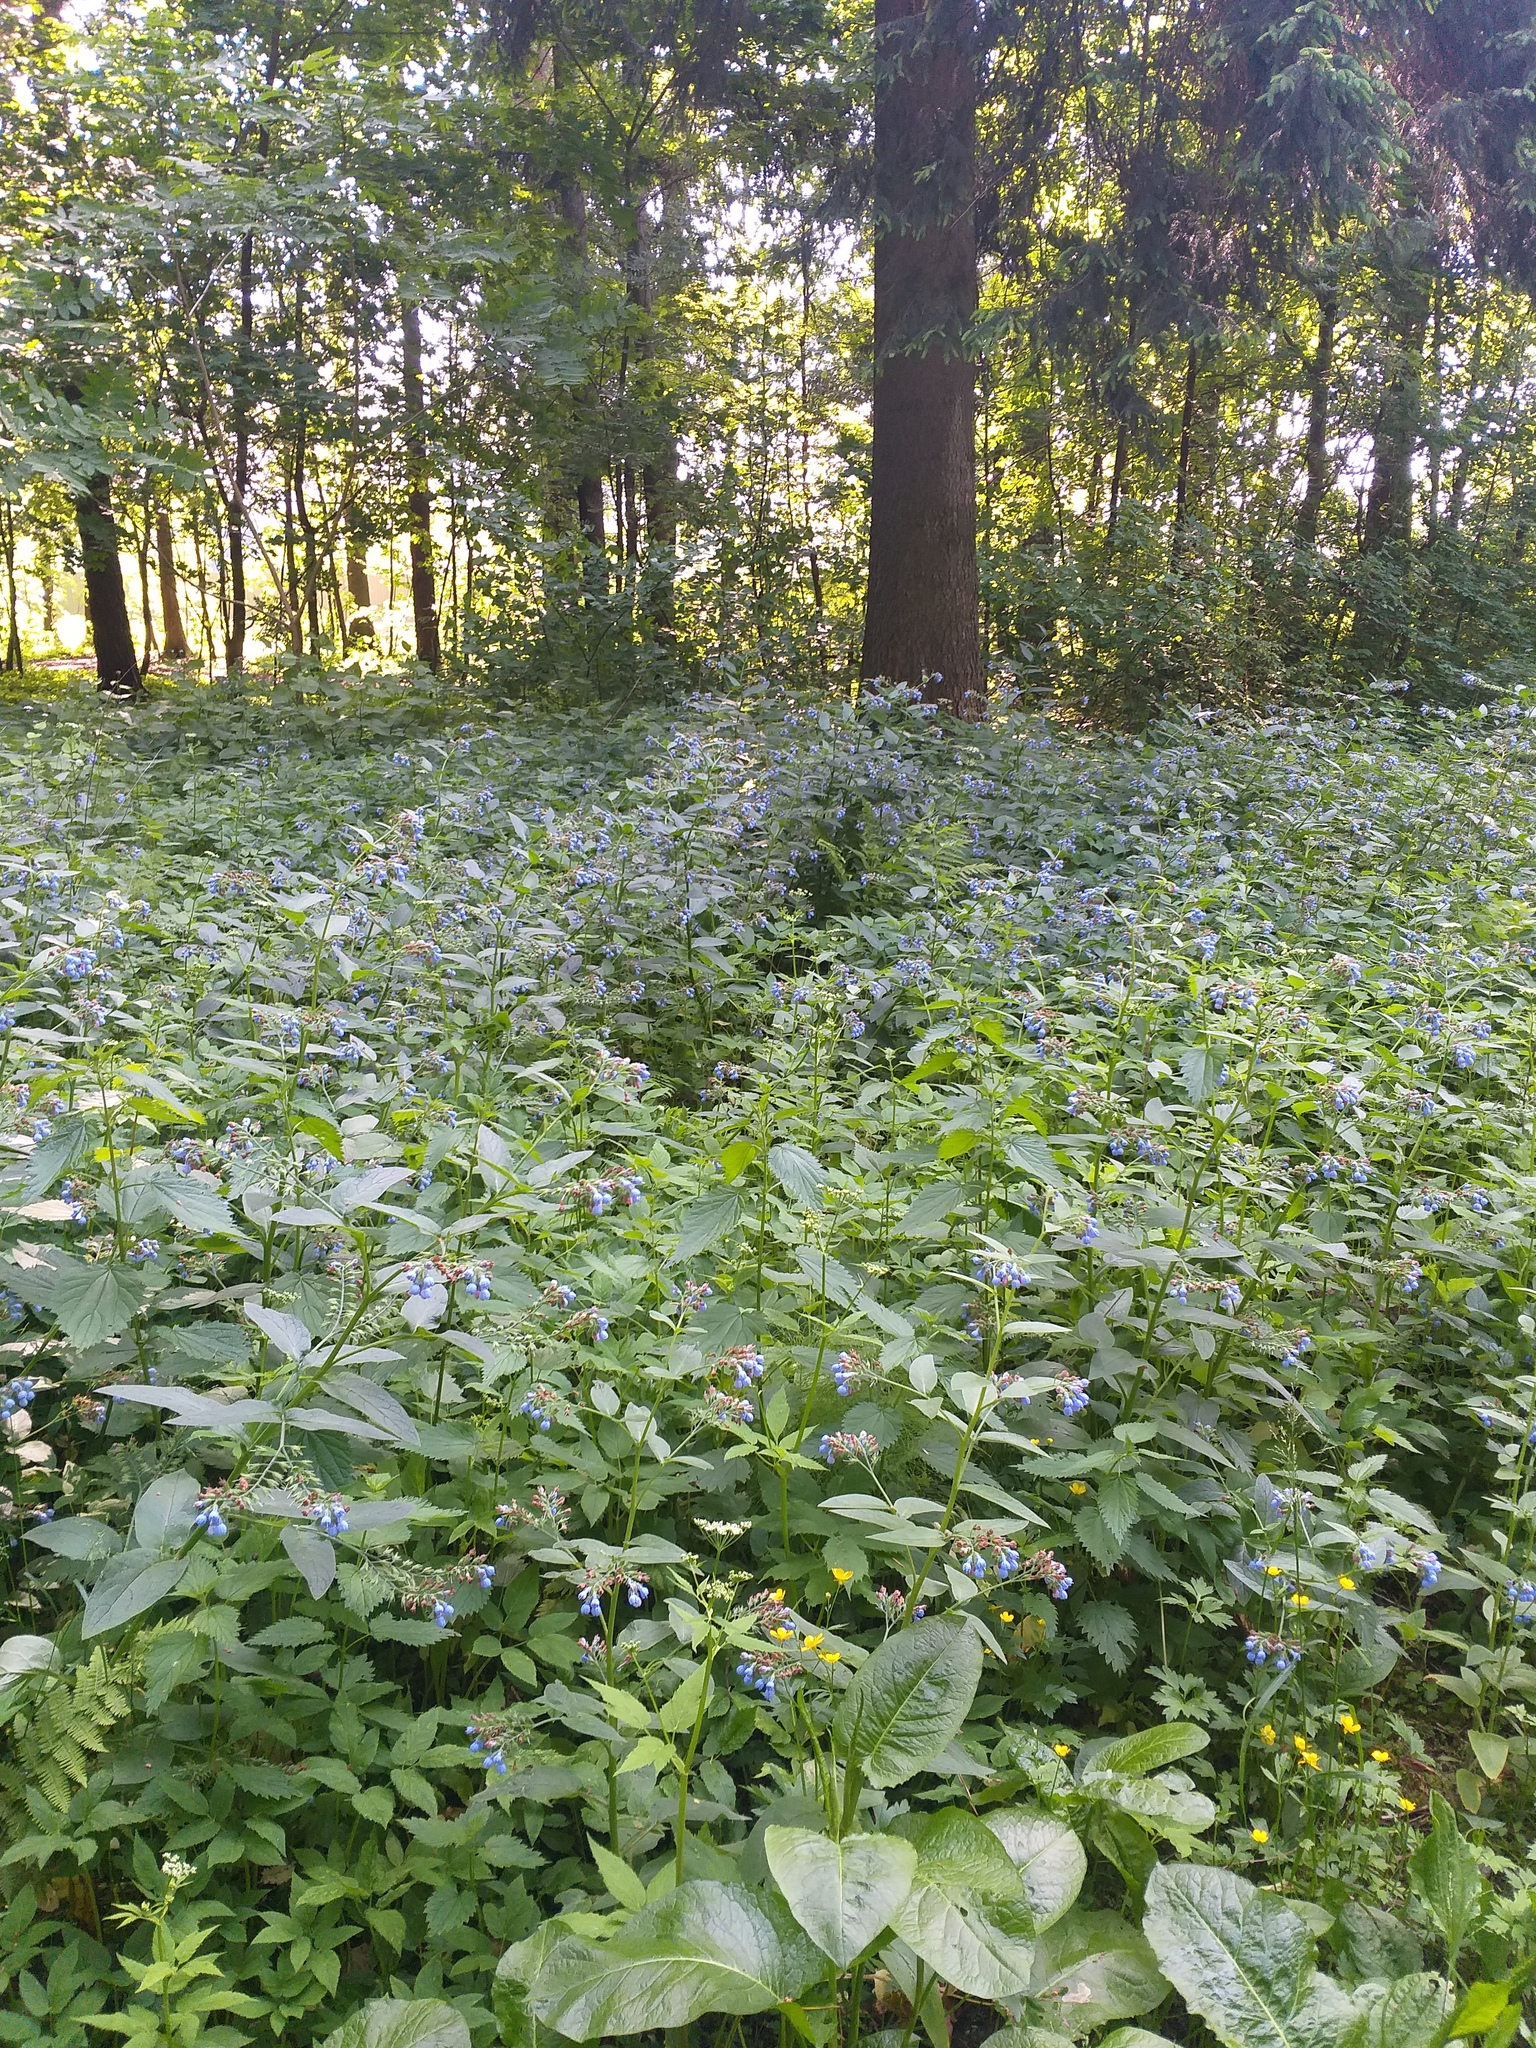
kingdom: Plantae
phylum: Tracheophyta
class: Magnoliopsida
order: Boraginales
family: Boraginaceae
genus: Symphytum
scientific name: Symphytum caucasicum
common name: Caucasian comfrey
